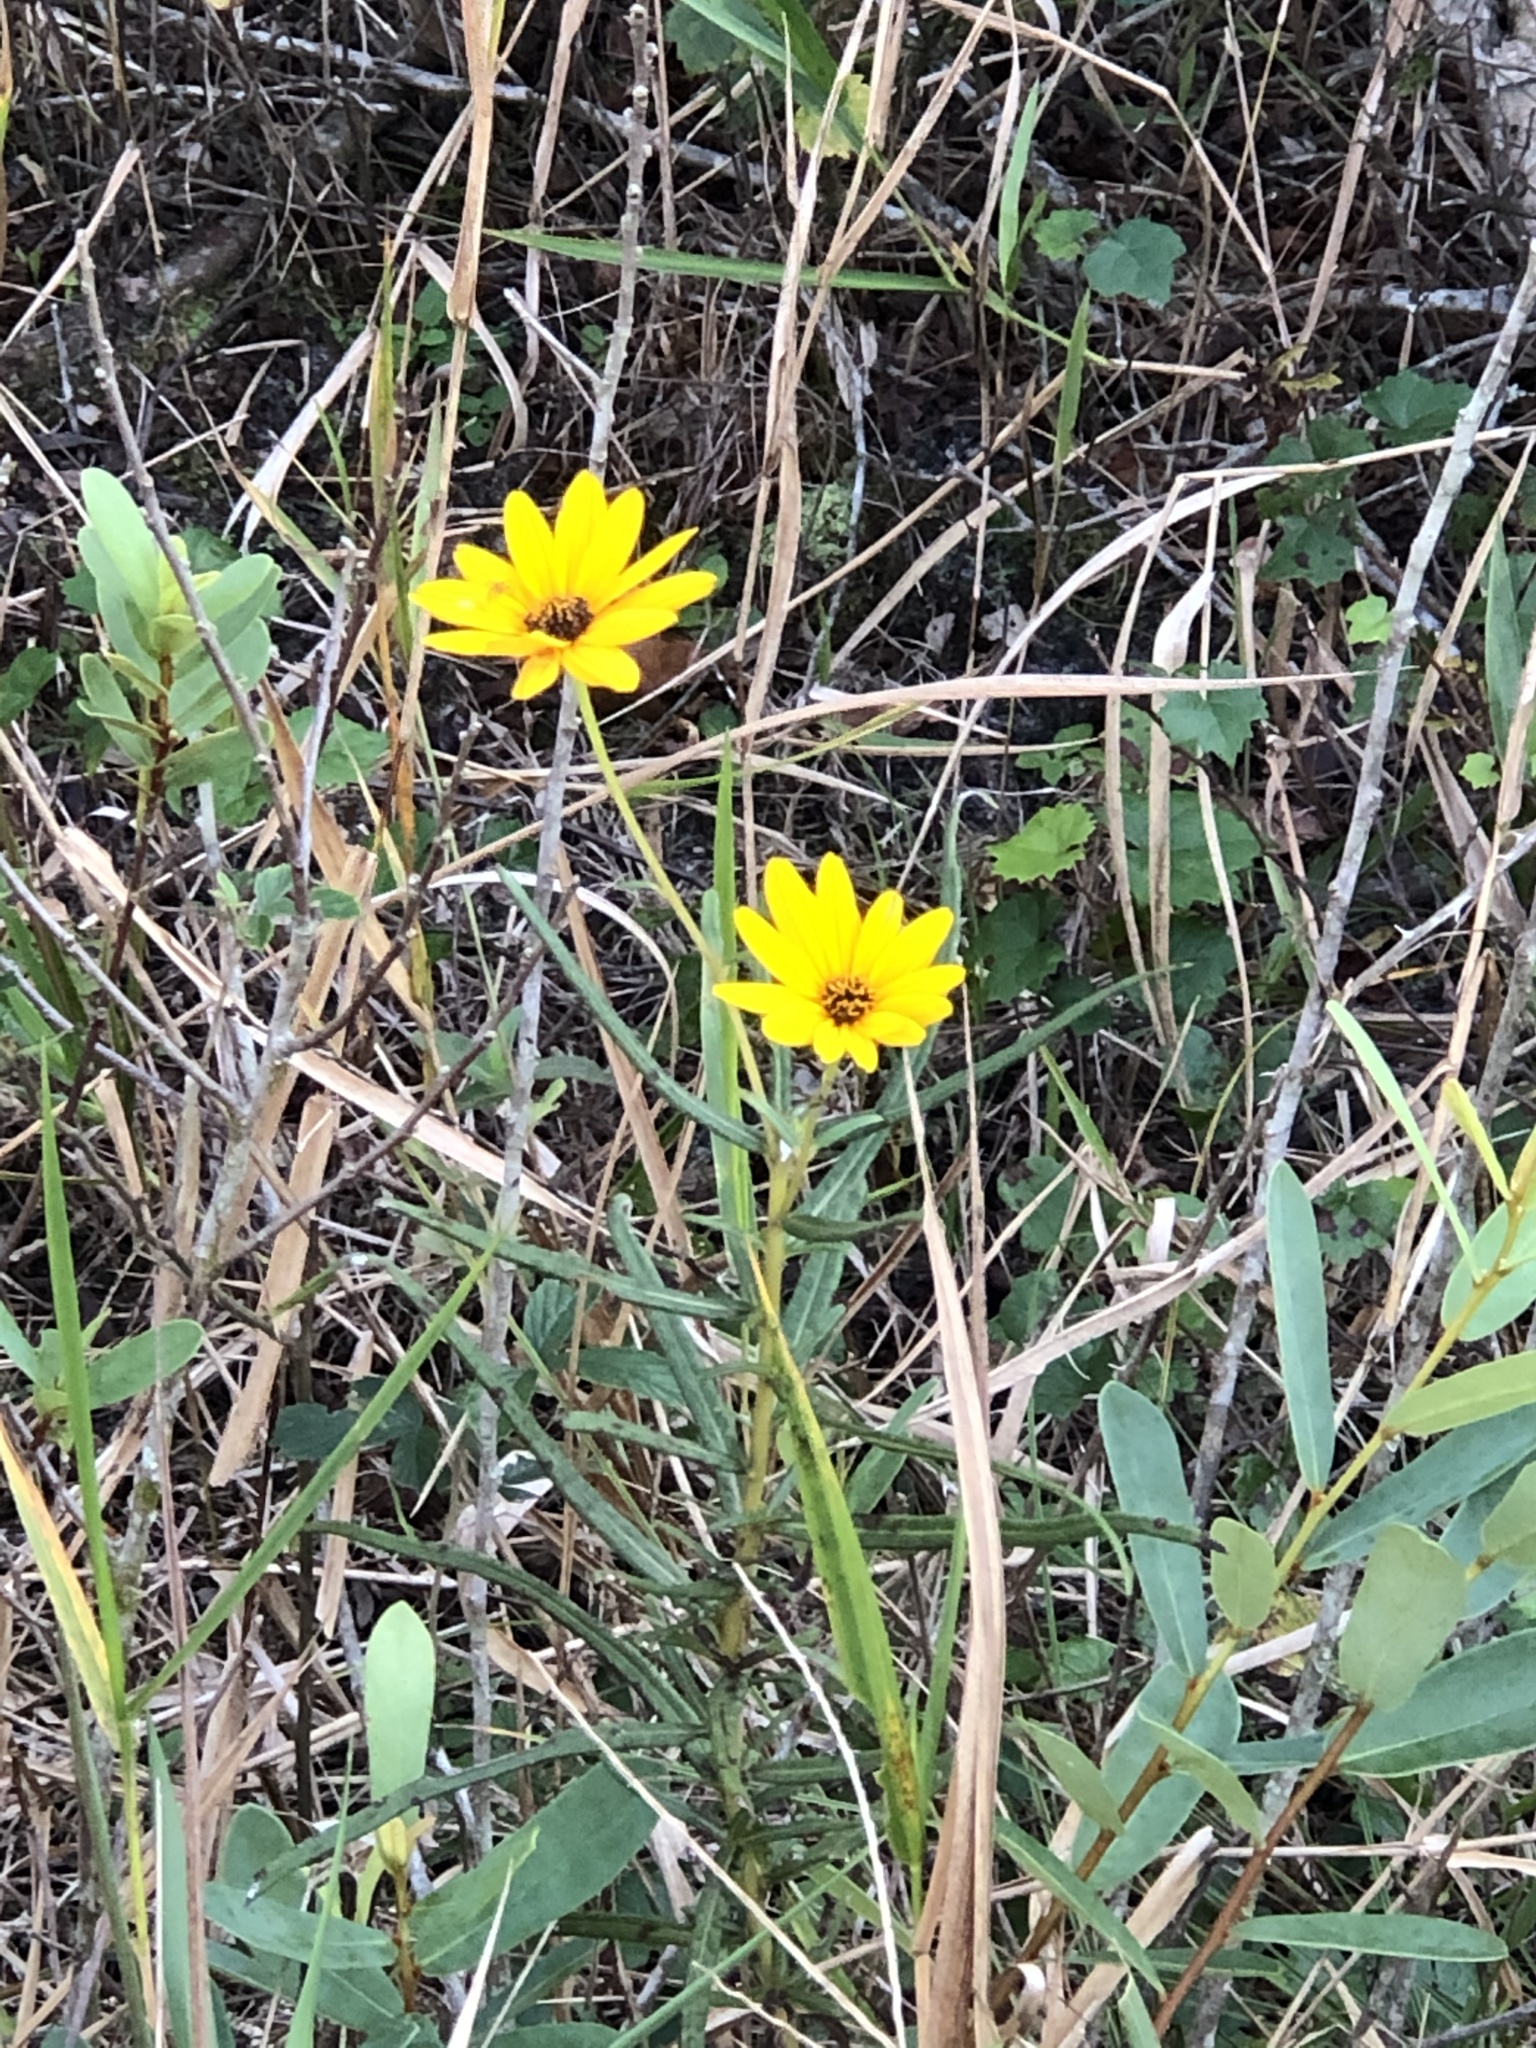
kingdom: Plantae
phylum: Tracheophyta
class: Magnoliopsida
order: Asterales
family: Asteraceae
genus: Helianthus
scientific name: Helianthus angustifolius
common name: Swamp sunflower
